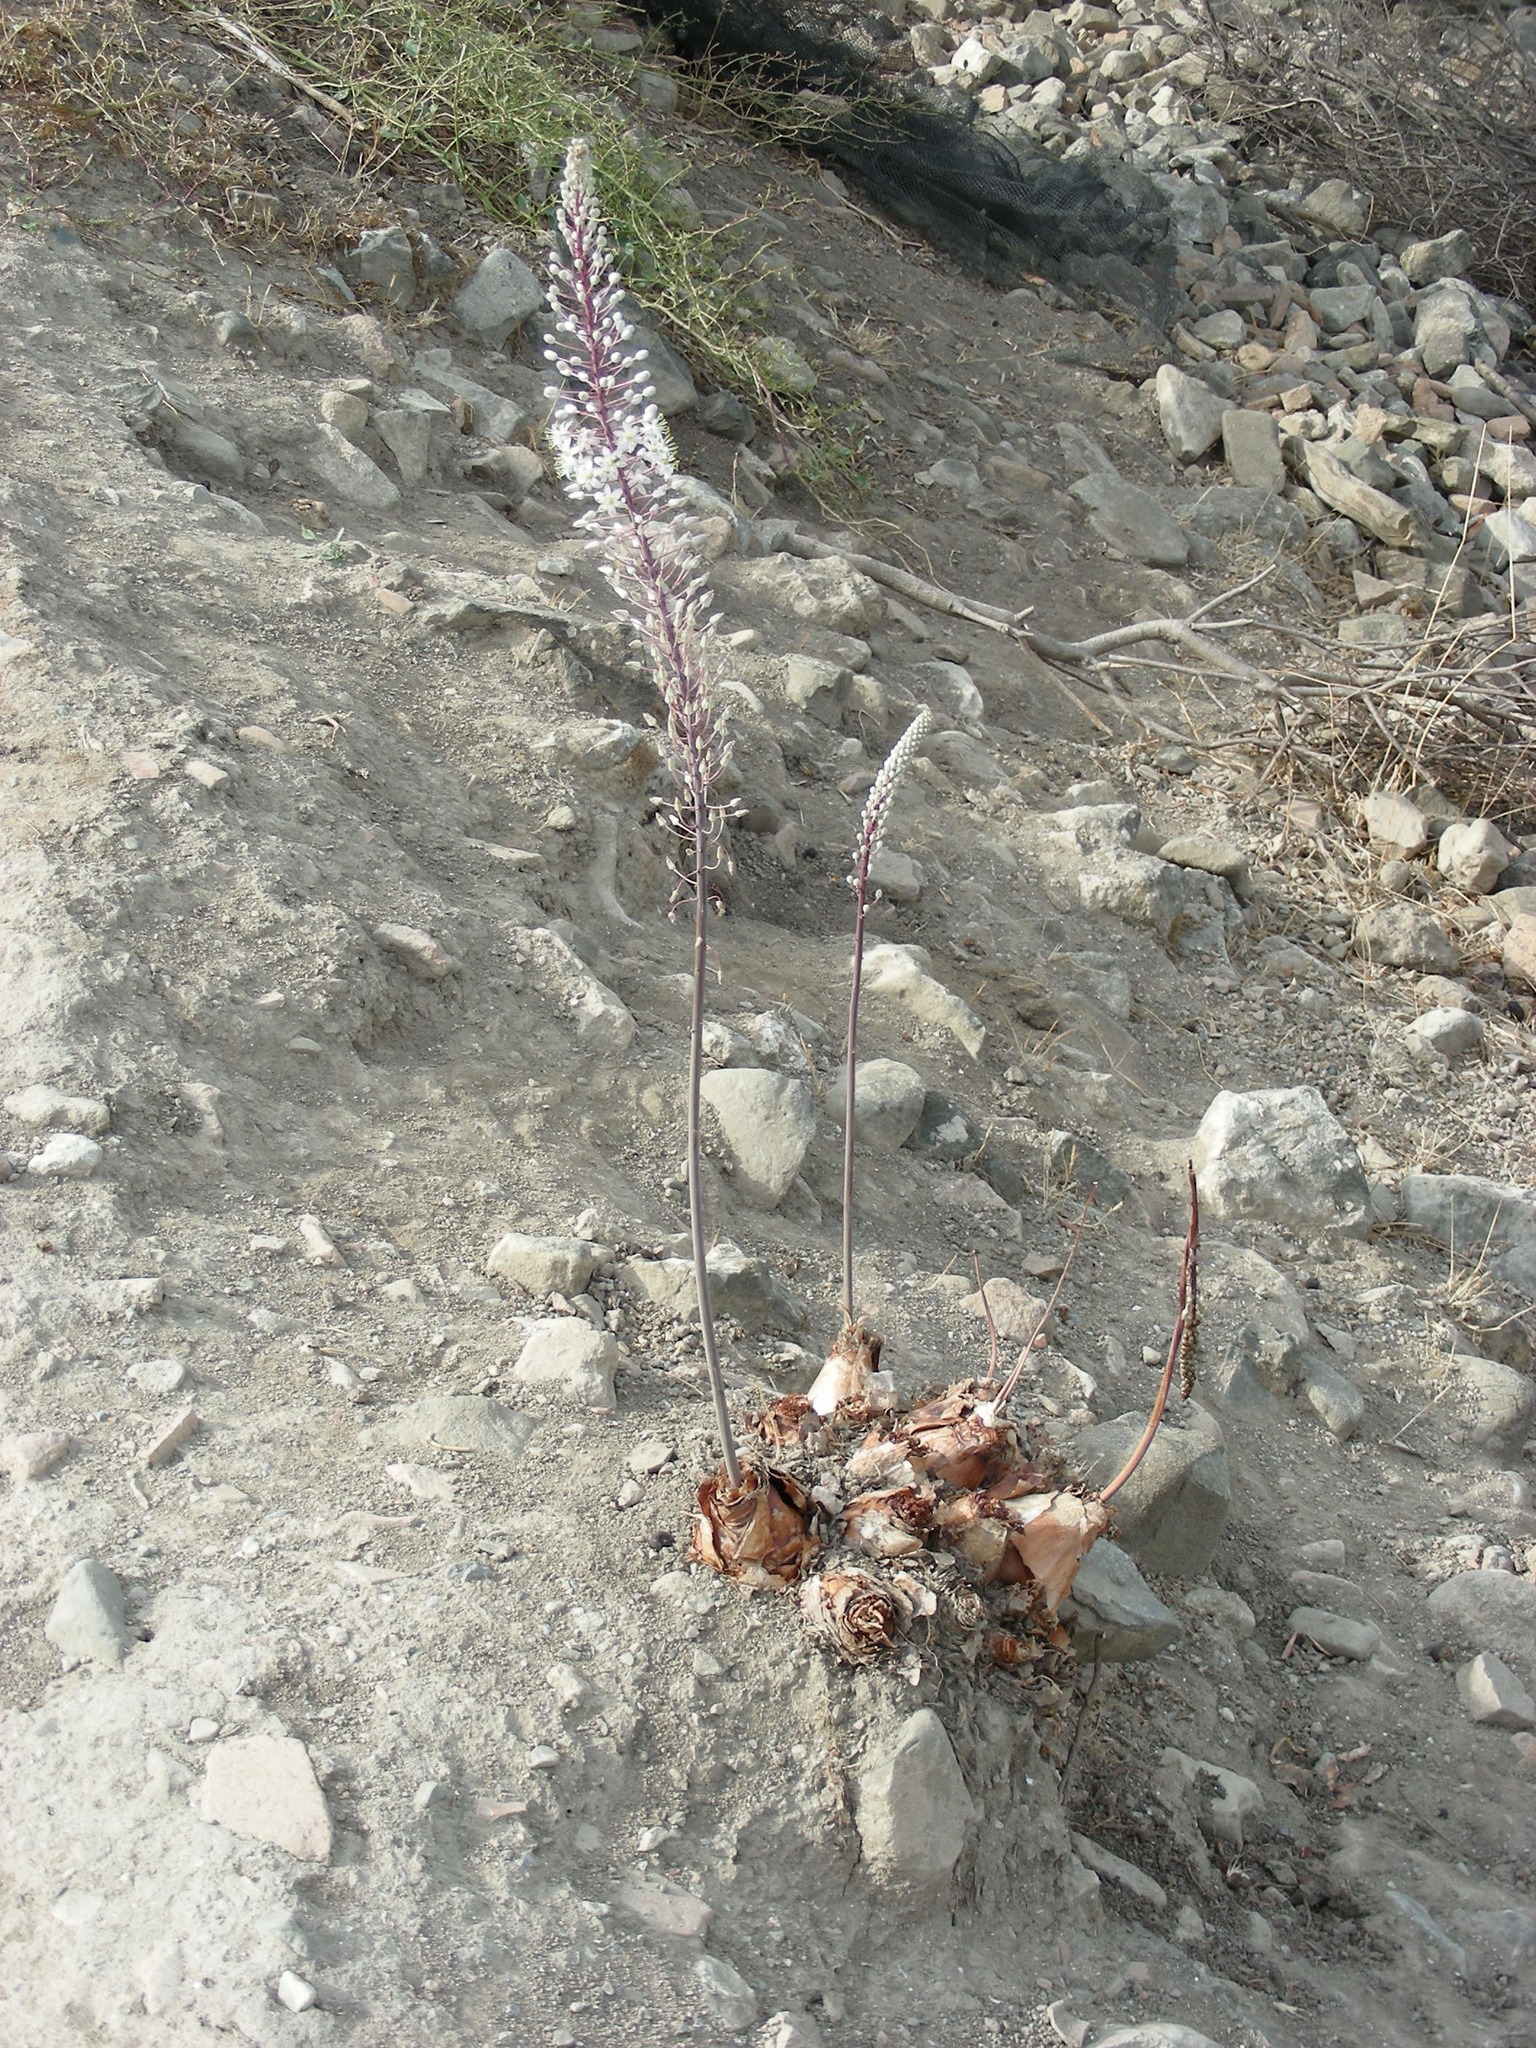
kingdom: Plantae
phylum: Tracheophyta
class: Liliopsida
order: Asparagales
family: Asparagaceae
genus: Drimia
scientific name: Drimia numidica
